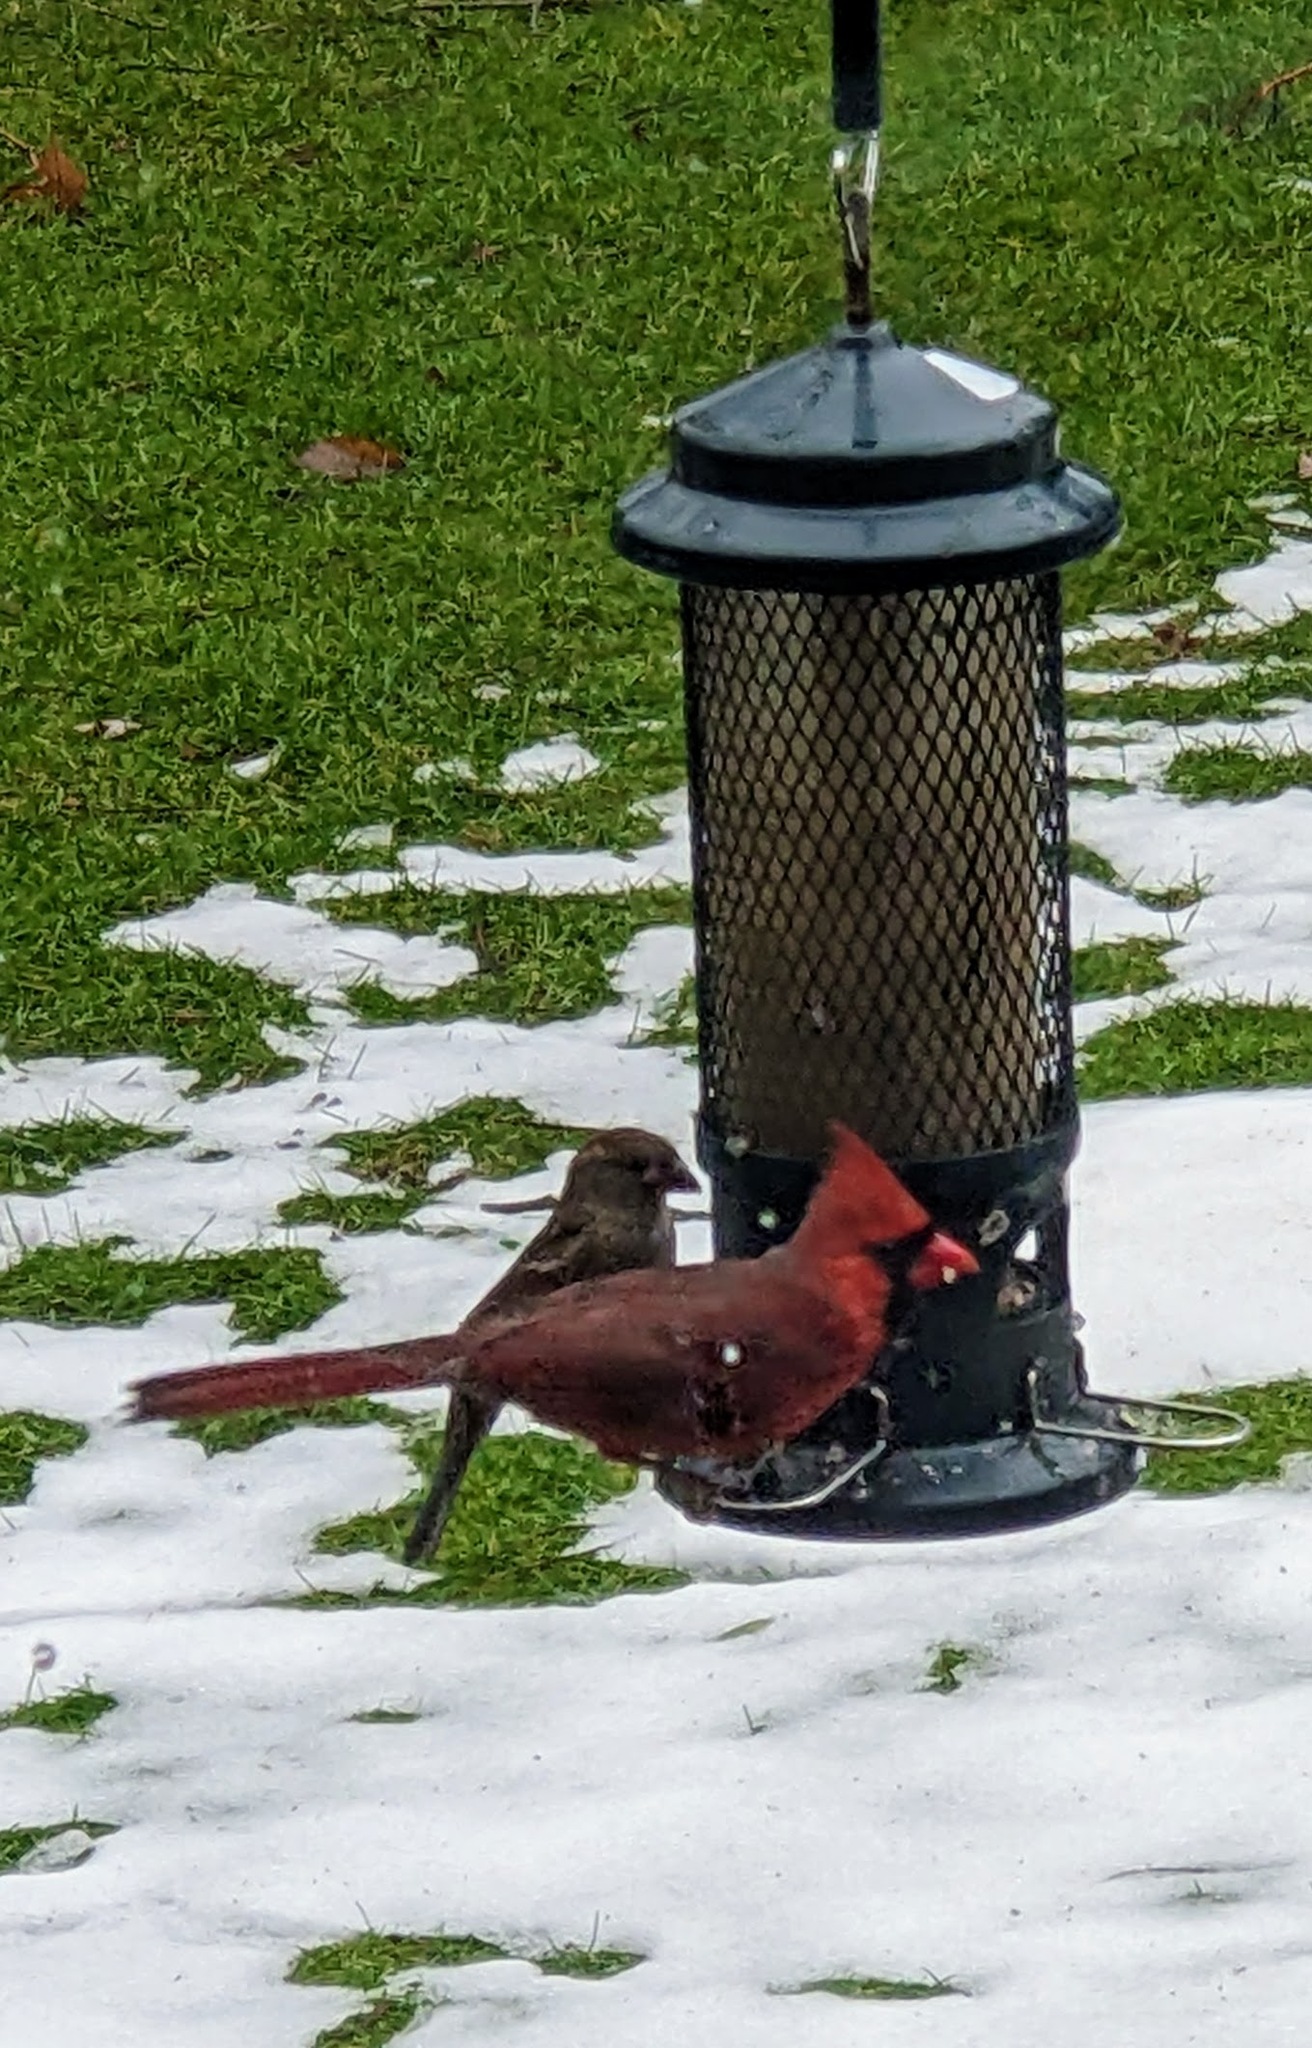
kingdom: Animalia
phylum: Chordata
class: Aves
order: Passeriformes
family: Cardinalidae
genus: Cardinalis
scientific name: Cardinalis cardinalis
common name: Northern cardinal
